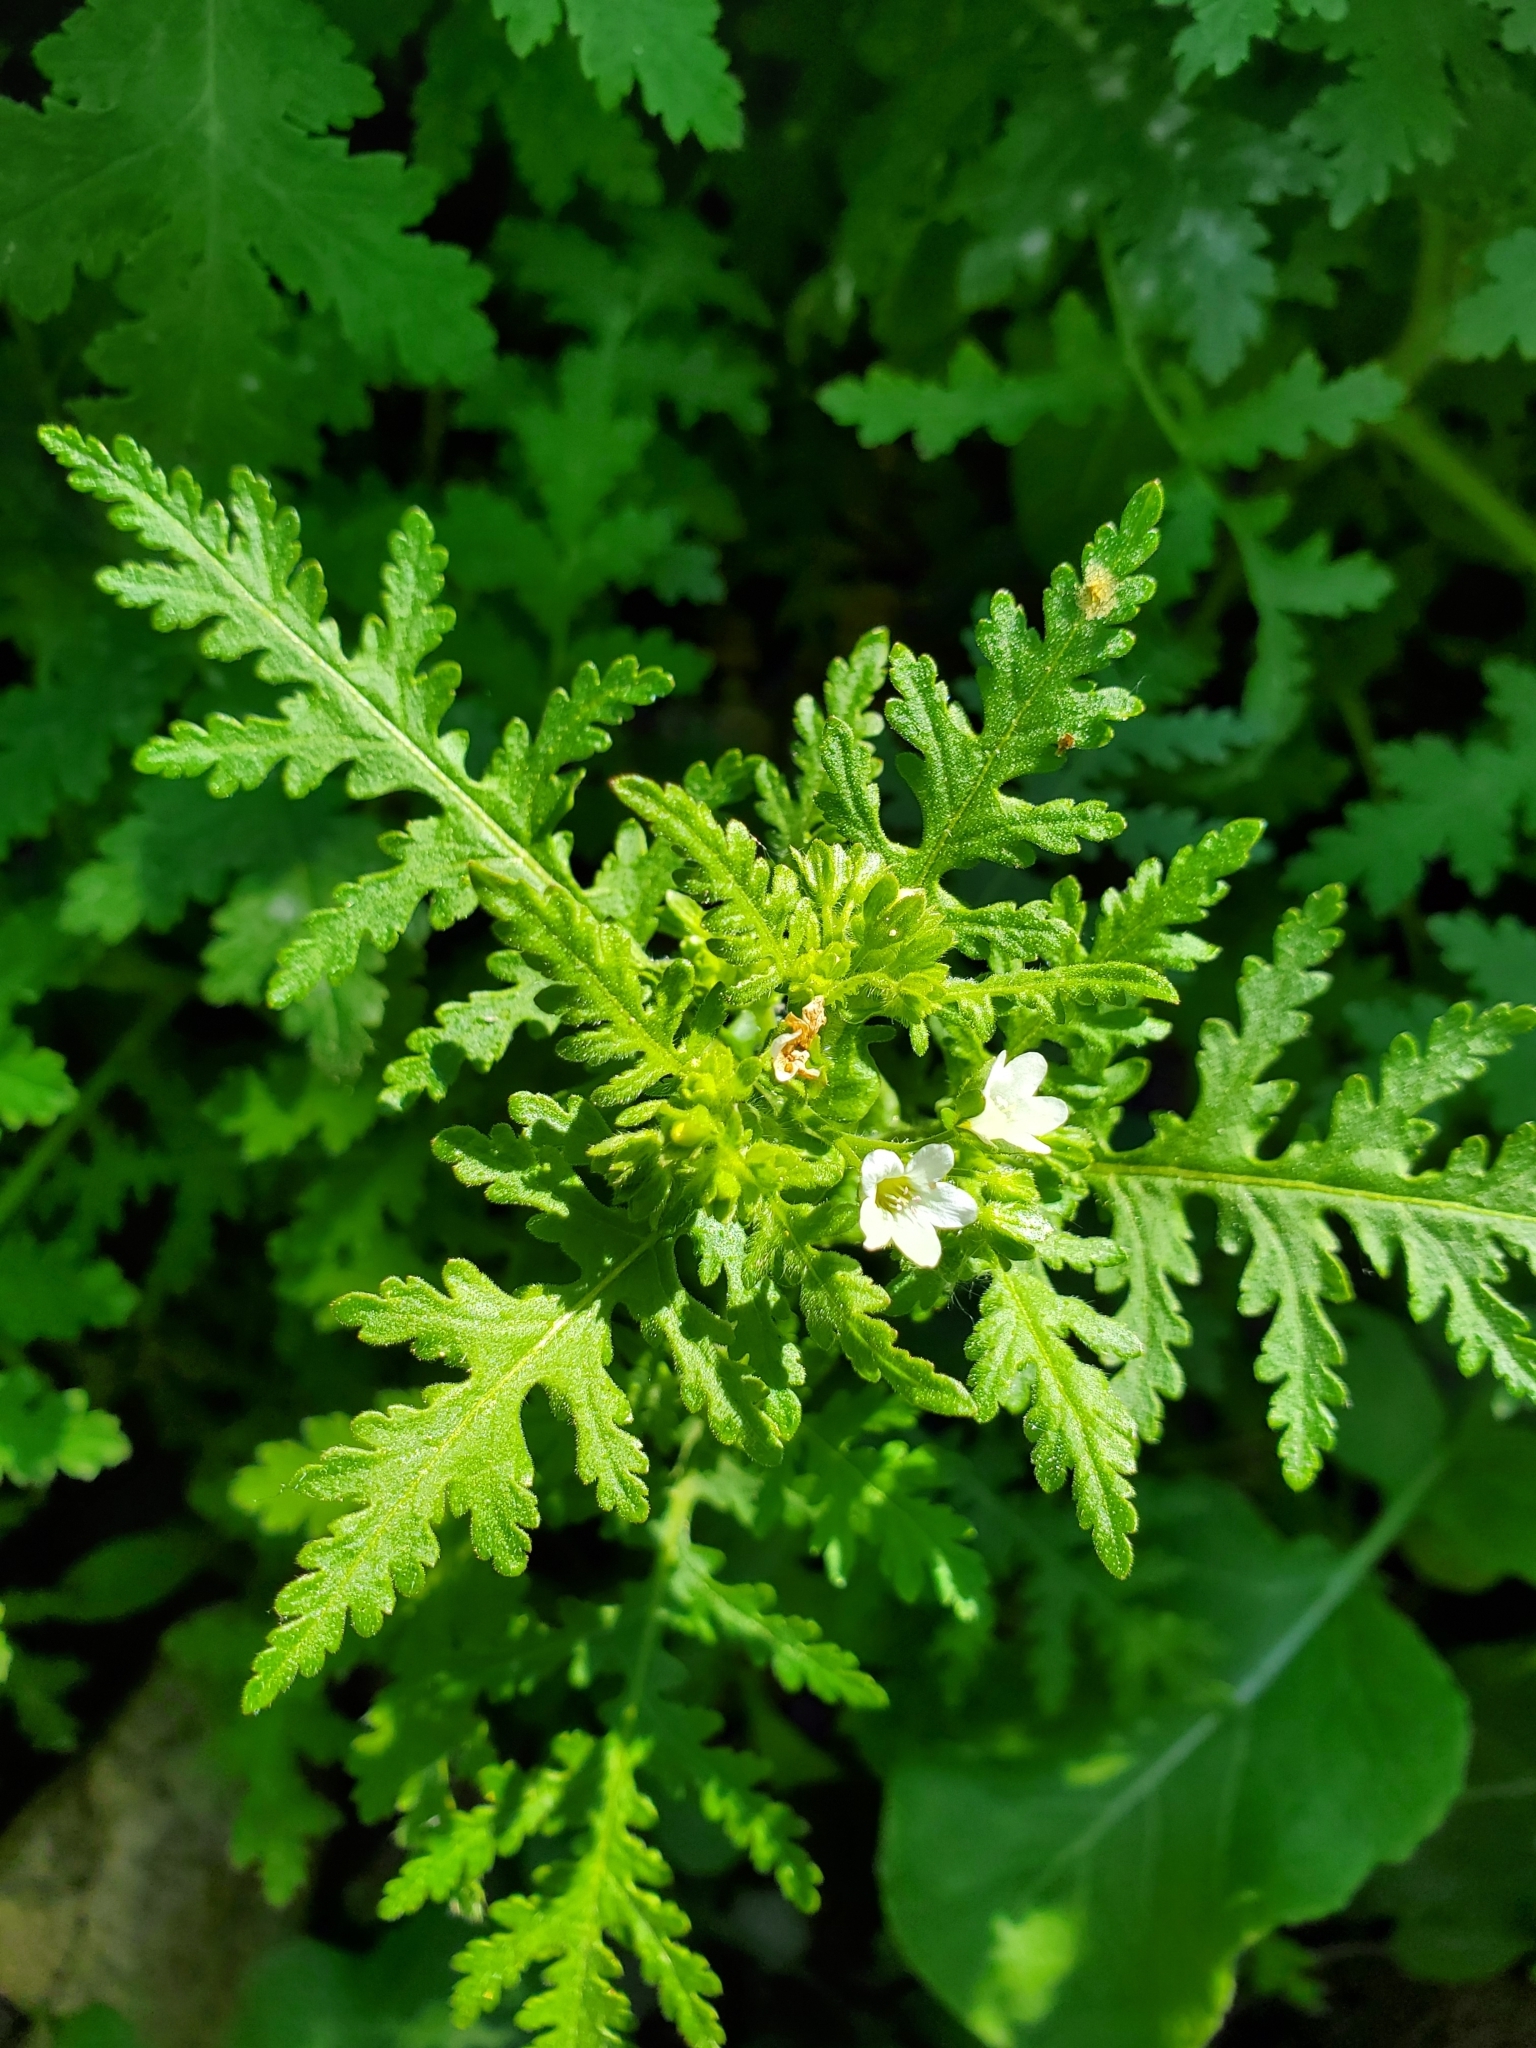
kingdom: Plantae
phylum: Tracheophyta
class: Magnoliopsida
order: Boraginales
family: Hydrophyllaceae
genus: Eucrypta
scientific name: Eucrypta chrysanthemifolia
